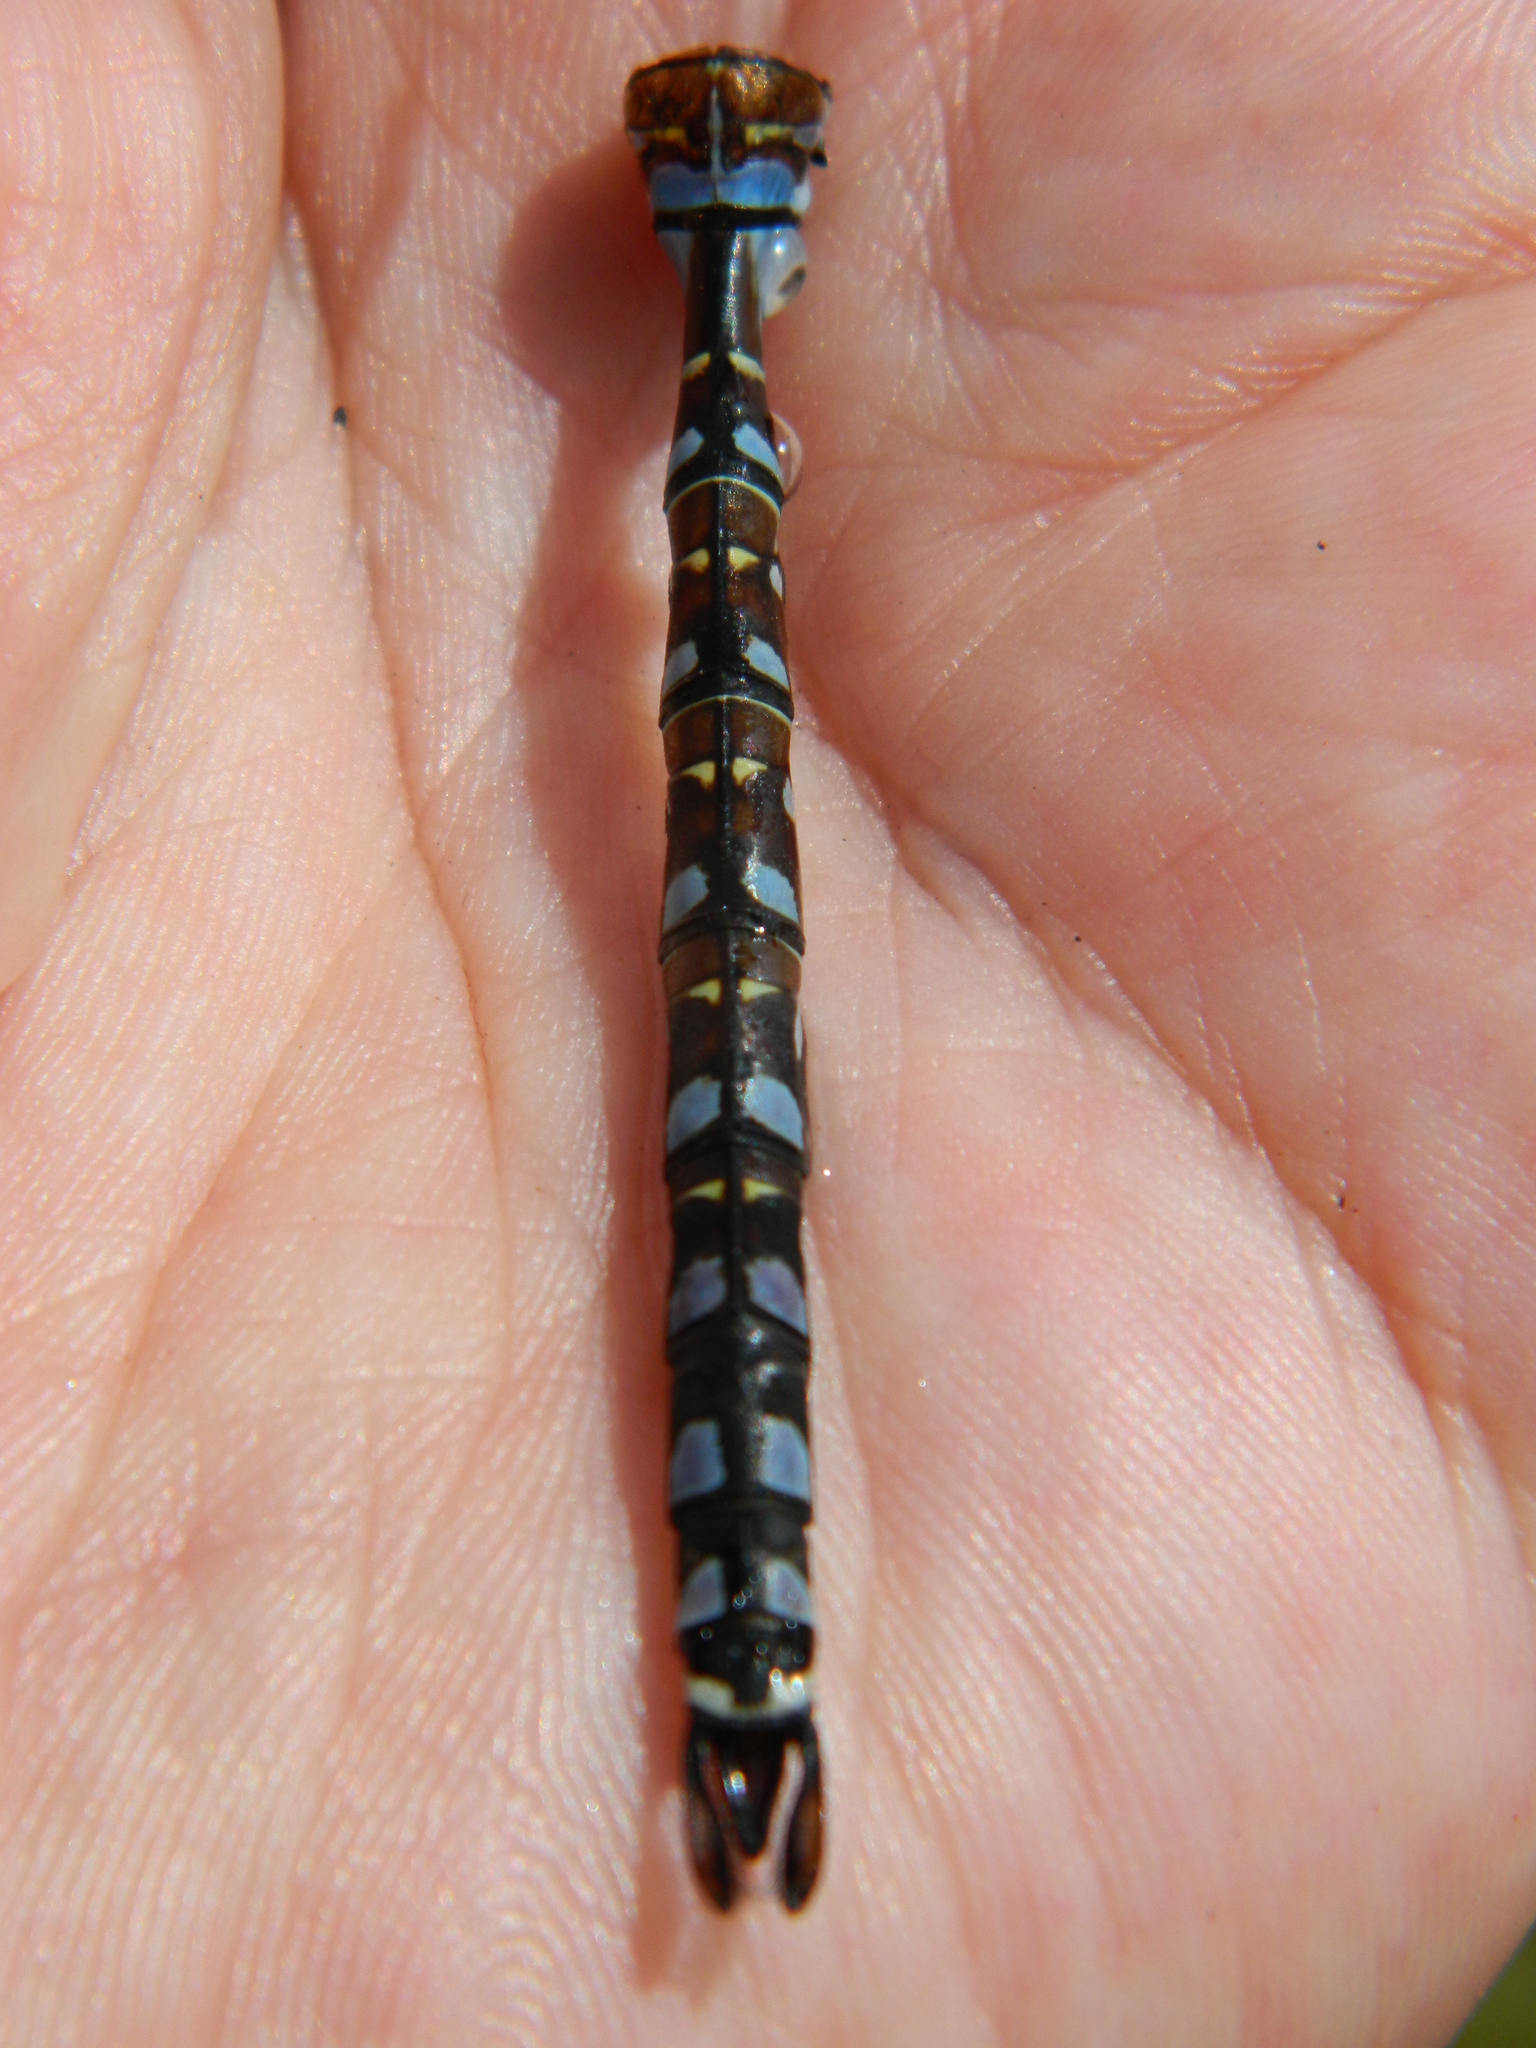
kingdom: Animalia
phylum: Arthropoda
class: Insecta
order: Odonata
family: Aeshnidae
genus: Aeshna
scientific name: Aeshna interrupta
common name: Variable darner
